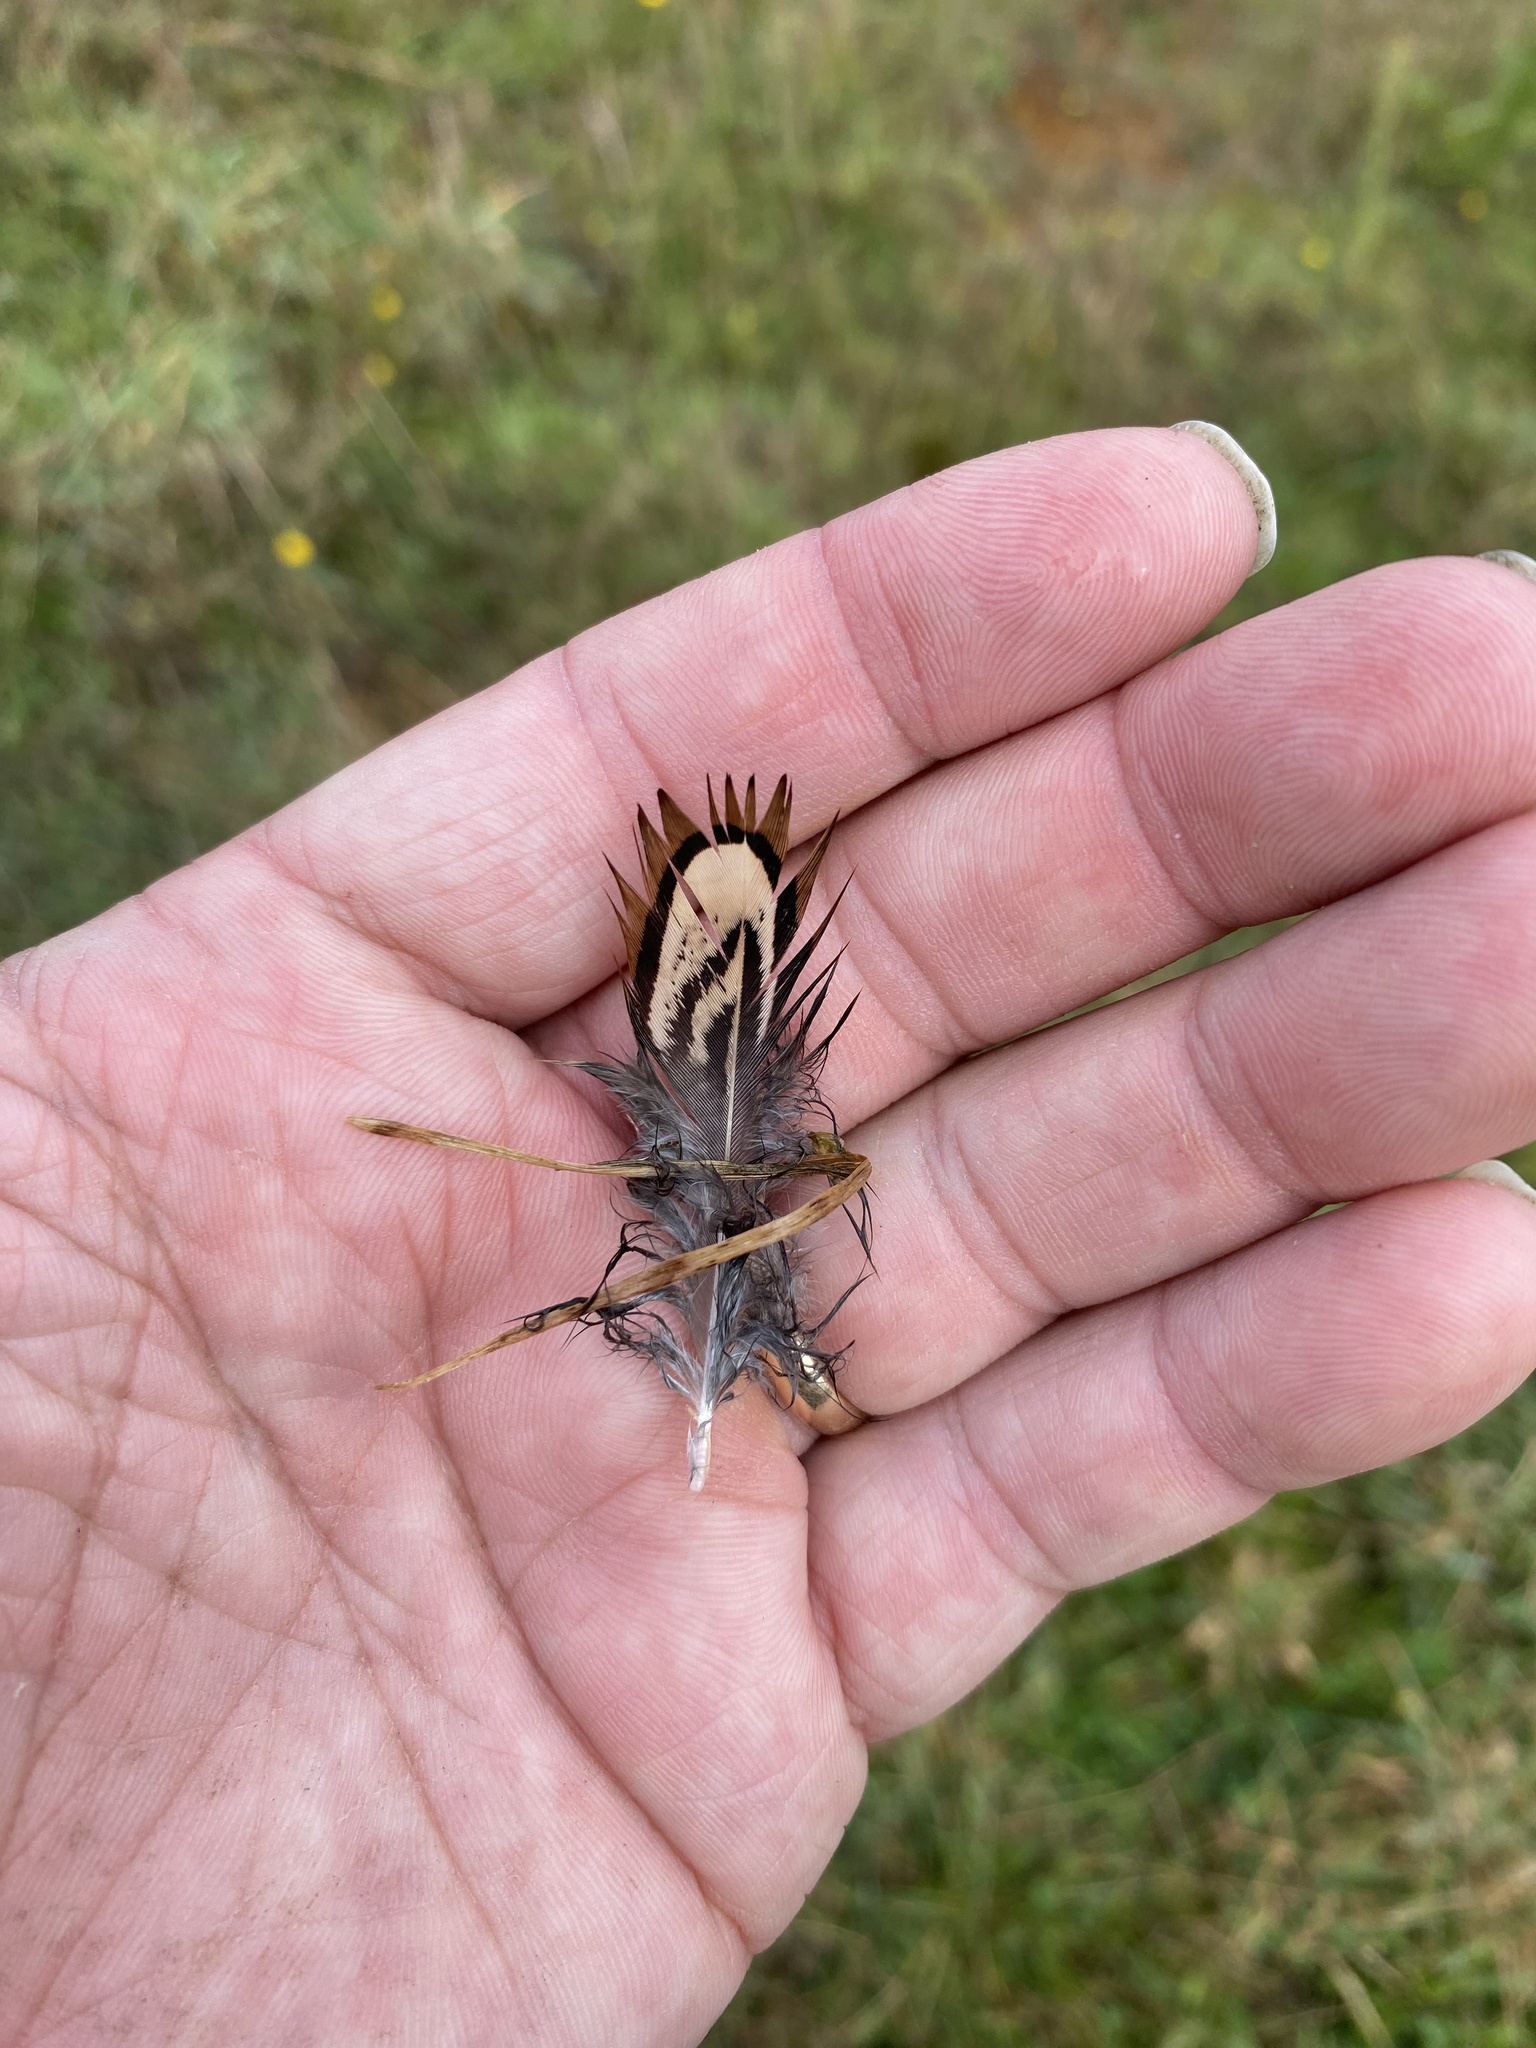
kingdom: Animalia
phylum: Chordata
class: Aves
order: Galliformes
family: Odontophoridae
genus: Callipepla
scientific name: Callipepla californica
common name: California quail
